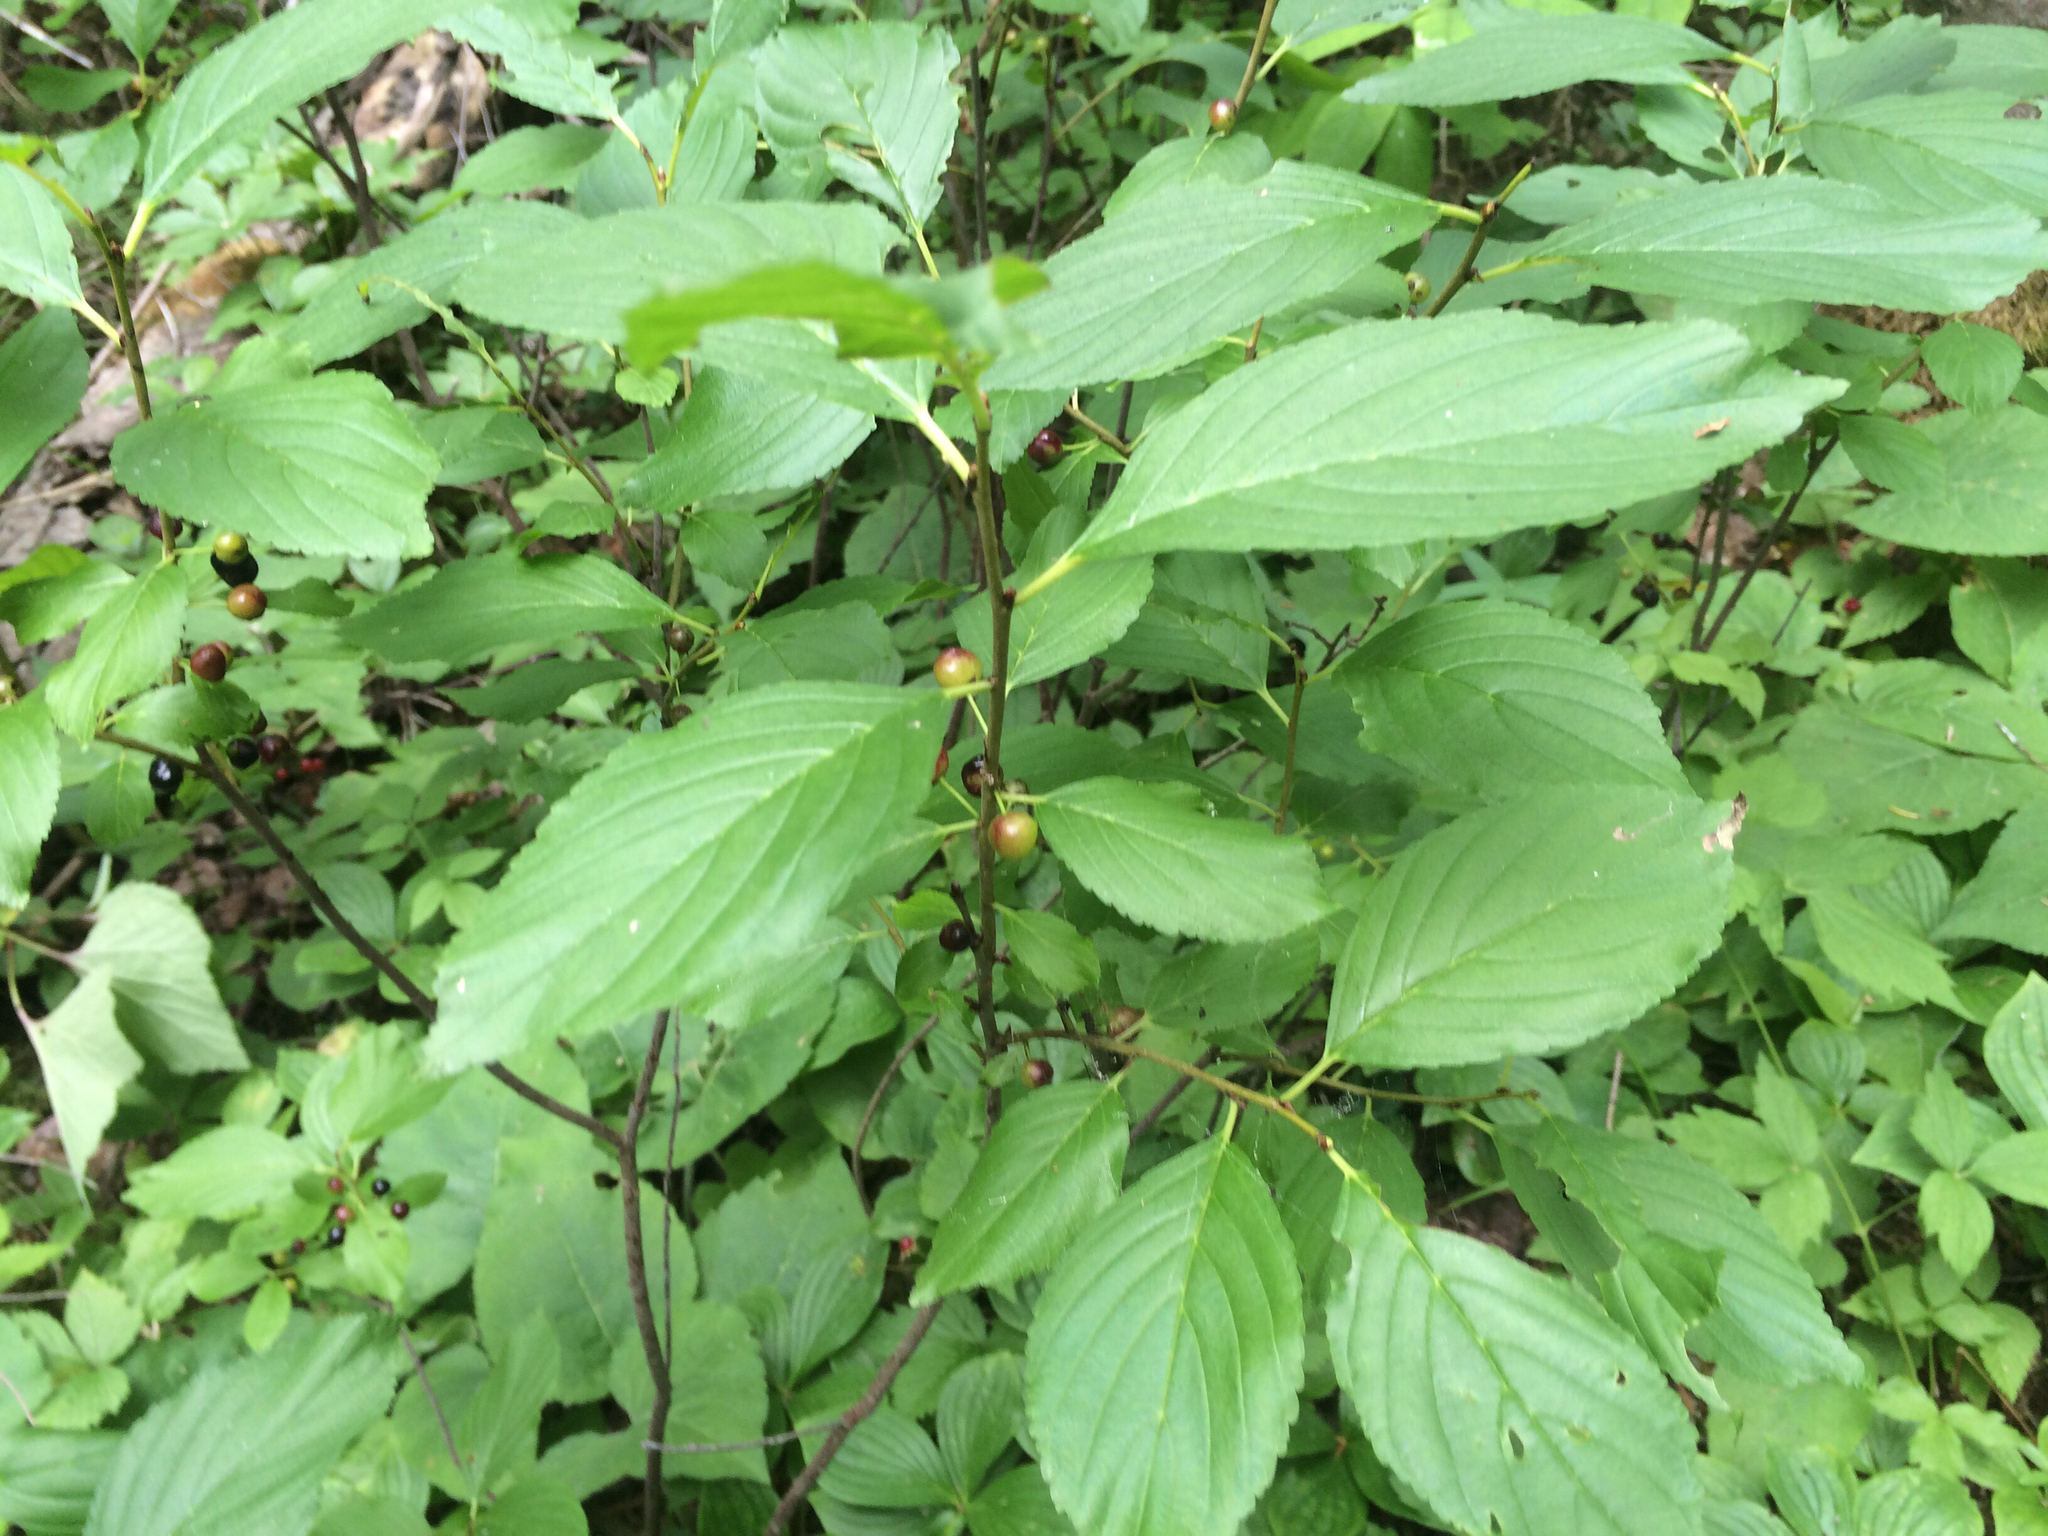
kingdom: Plantae
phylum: Tracheophyta
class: Magnoliopsida
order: Rosales
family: Rhamnaceae
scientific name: Rhamnaceae
